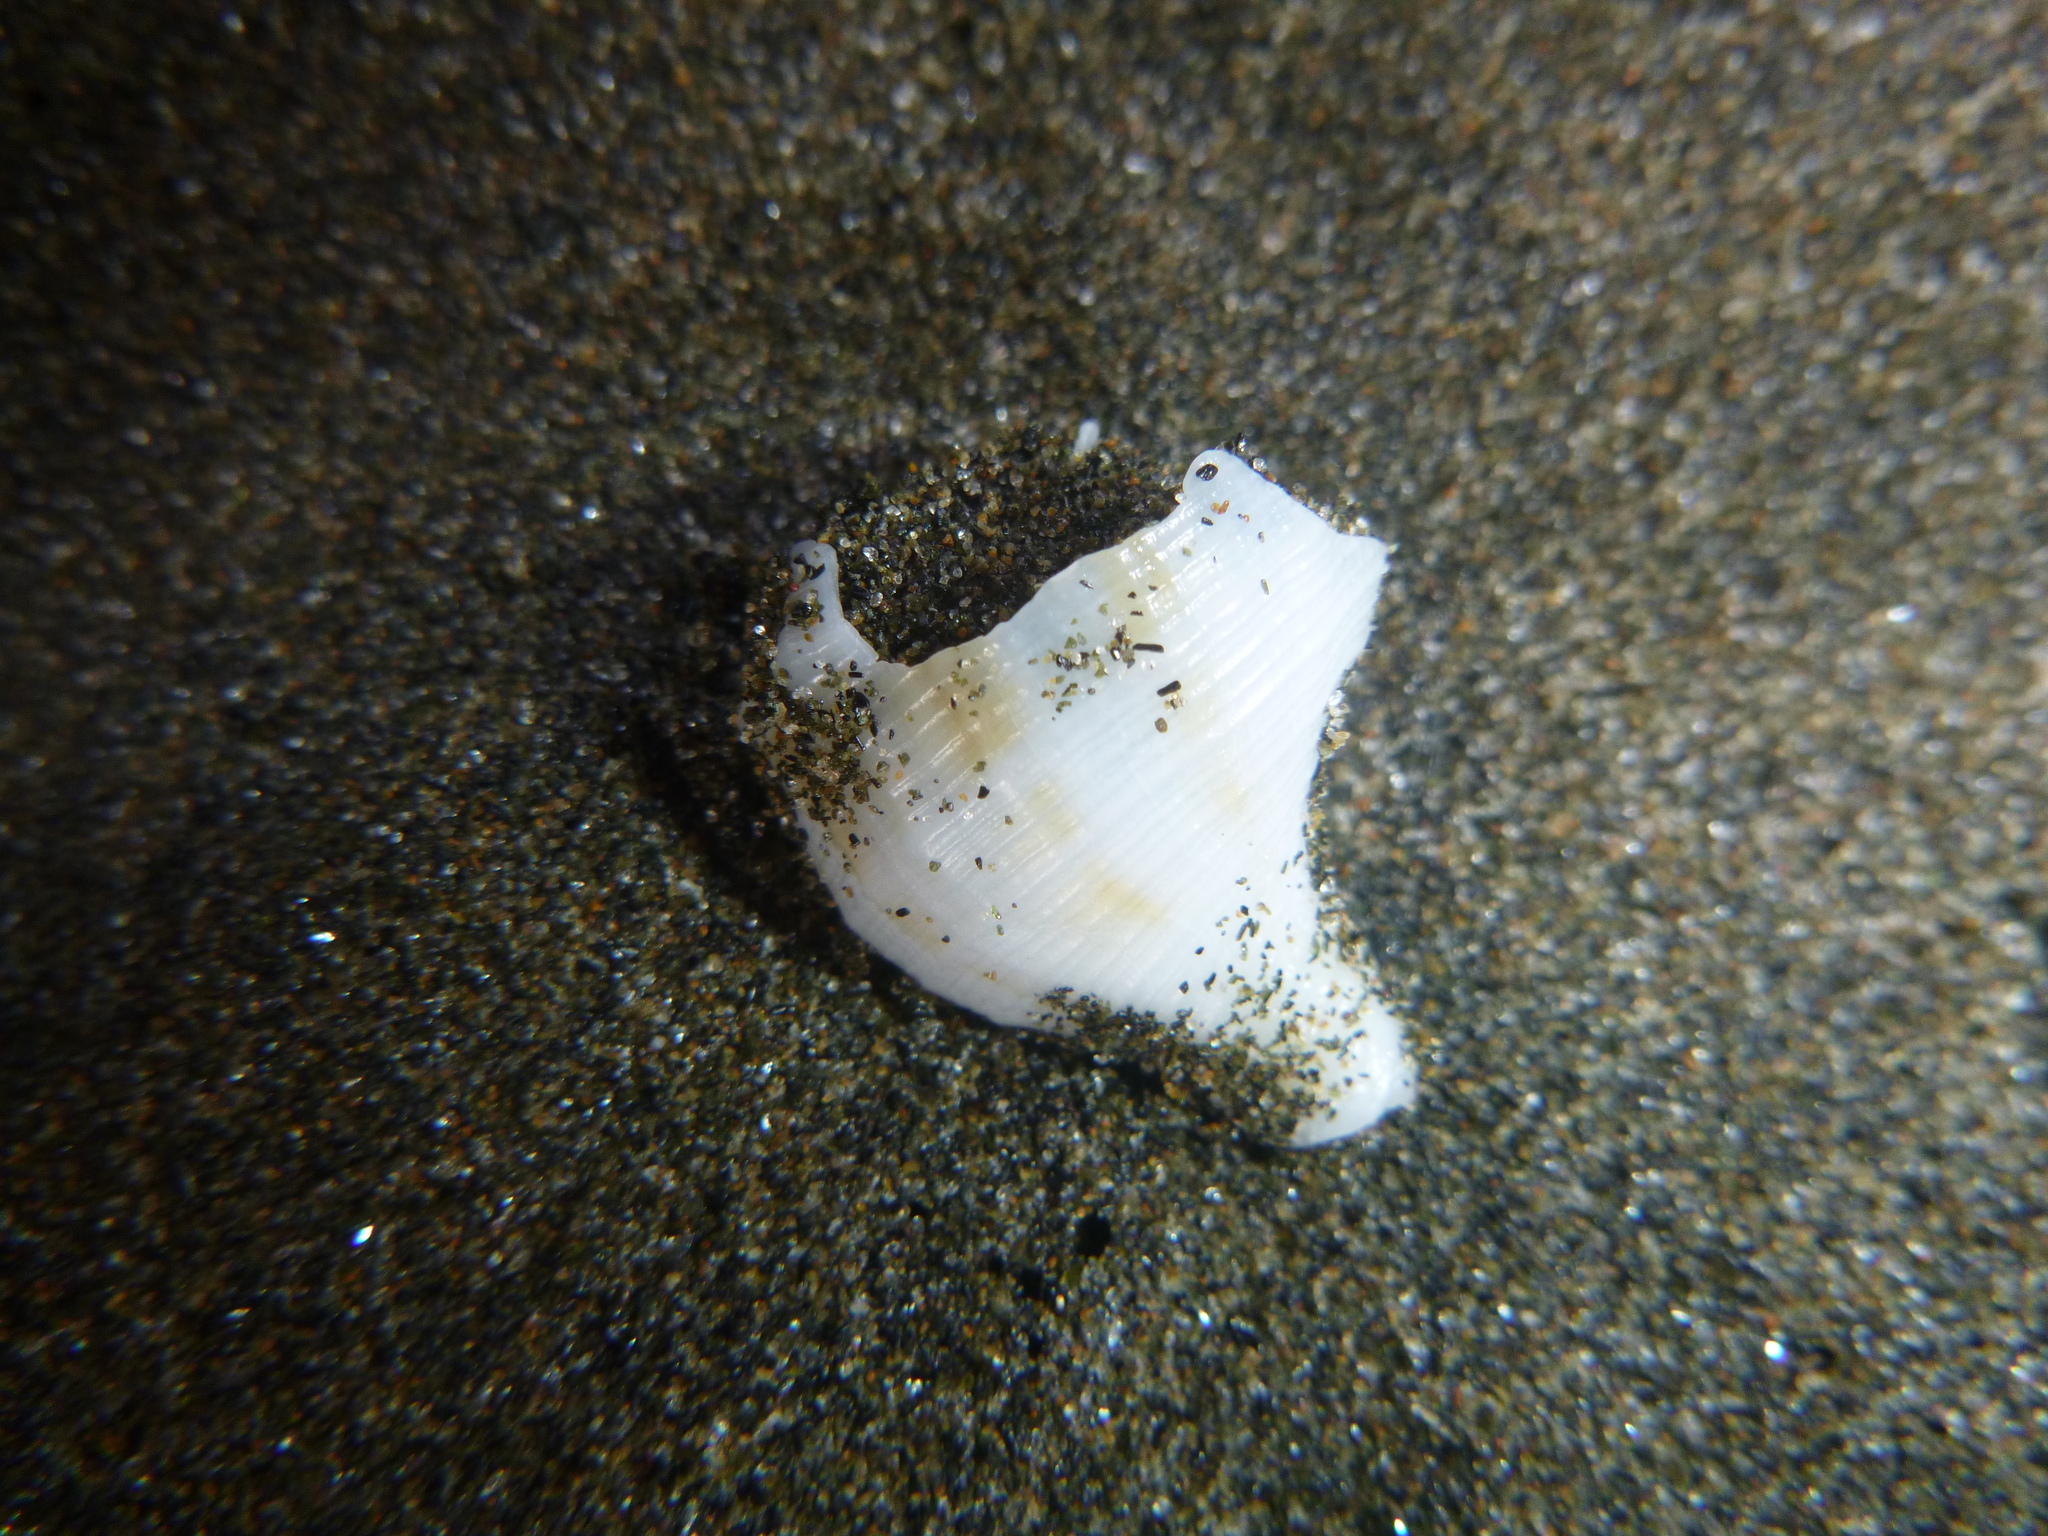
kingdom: Animalia
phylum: Mollusca
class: Gastropoda
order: Neogastropoda
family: Prosiphonidae
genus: Austrofusus
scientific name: Austrofusus glans
